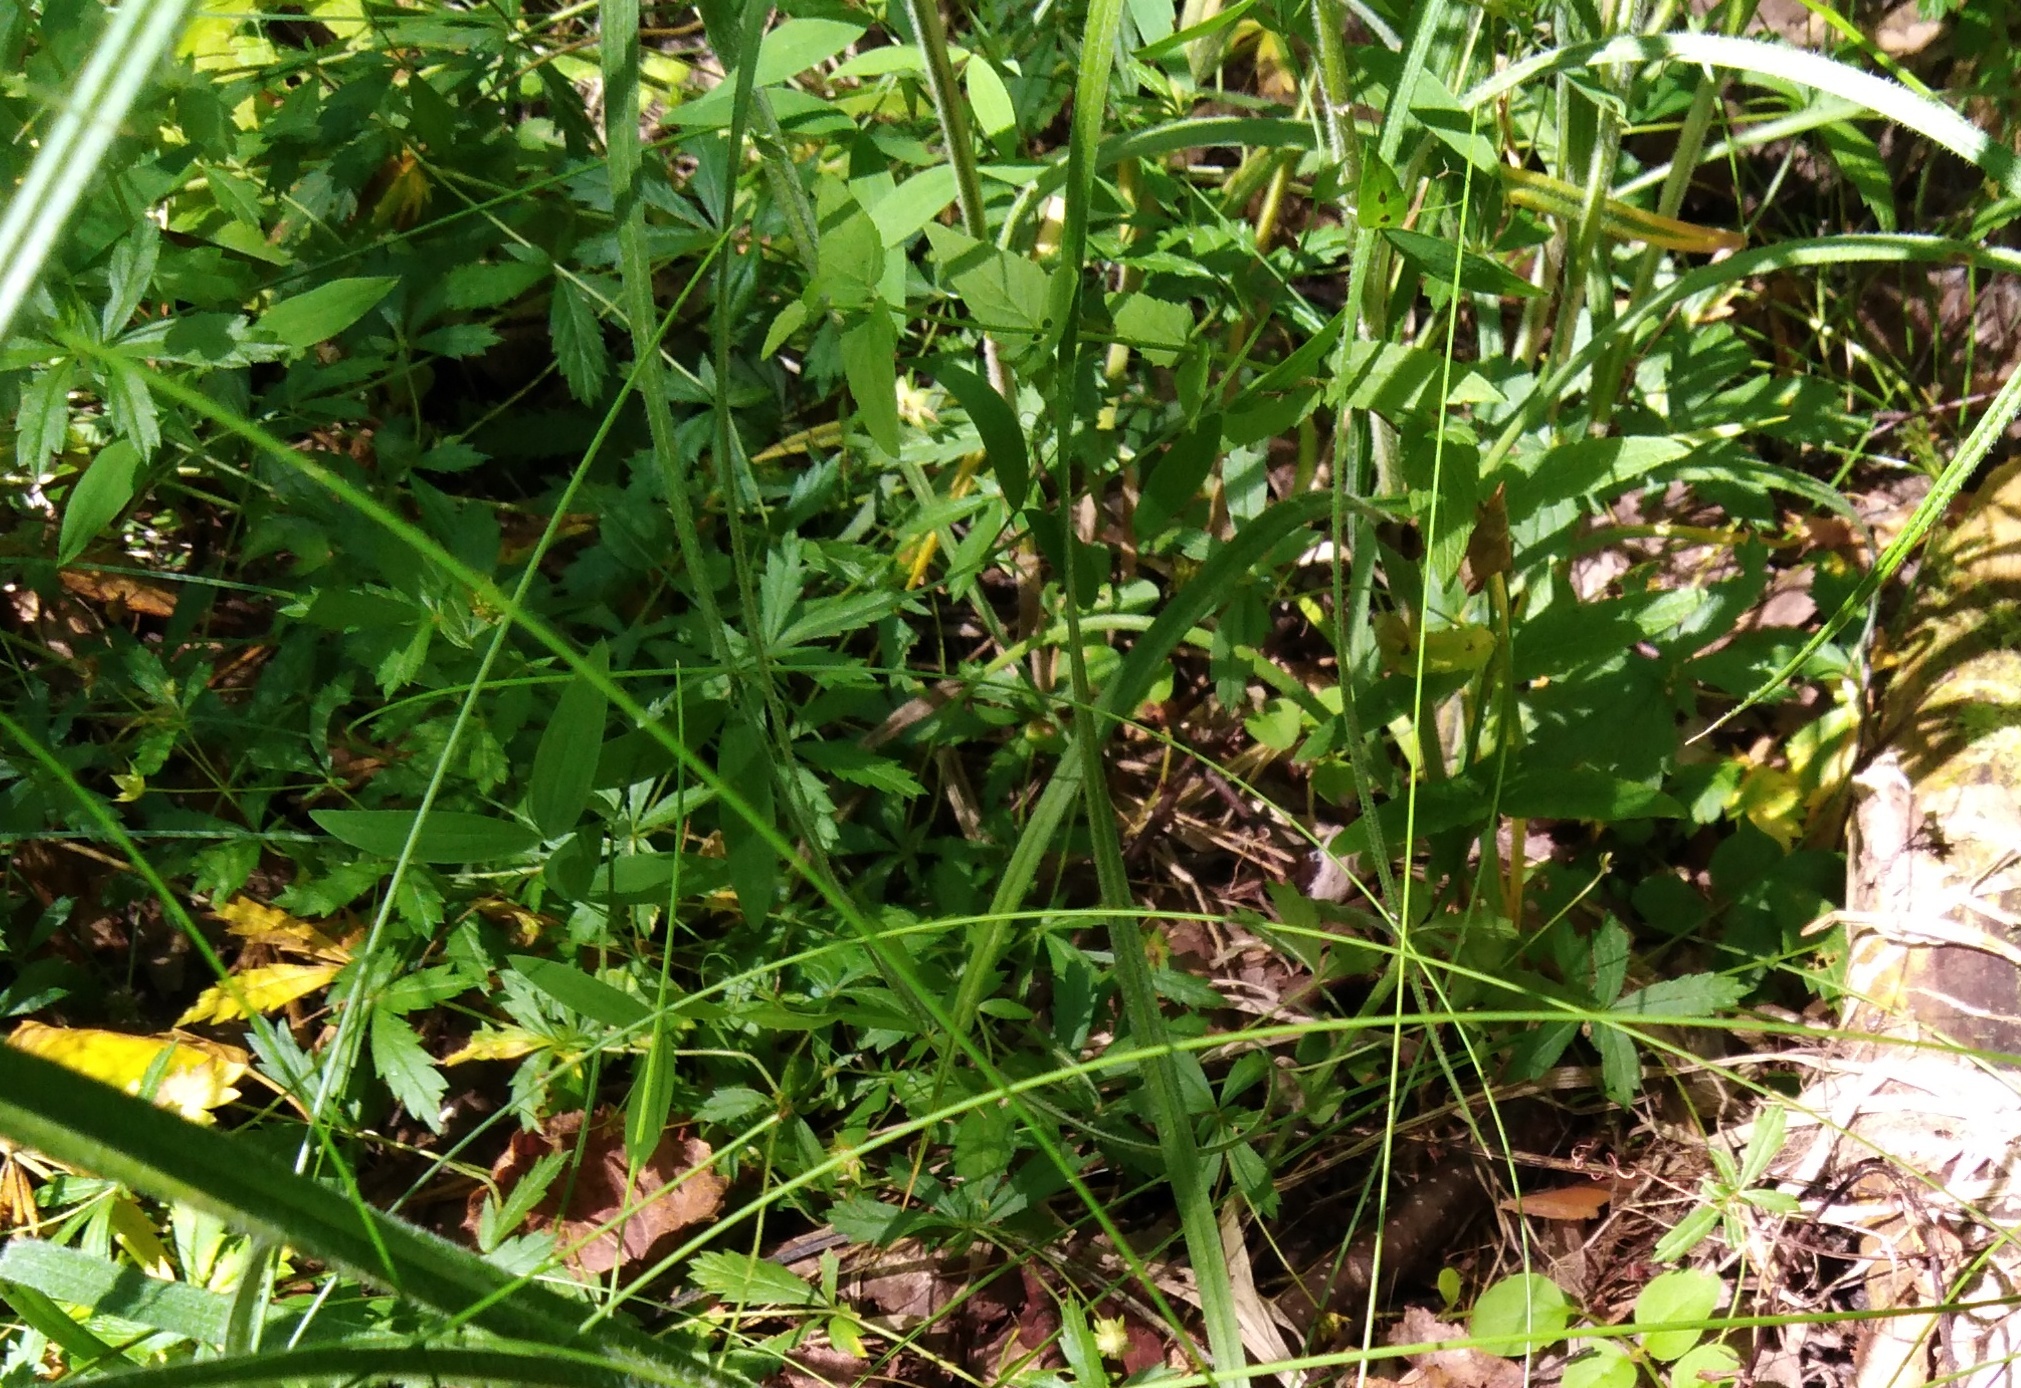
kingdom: Plantae
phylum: Tracheophyta
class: Magnoliopsida
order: Rosales
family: Rosaceae
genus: Potentilla
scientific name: Potentilla erecta
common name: Tormentil
